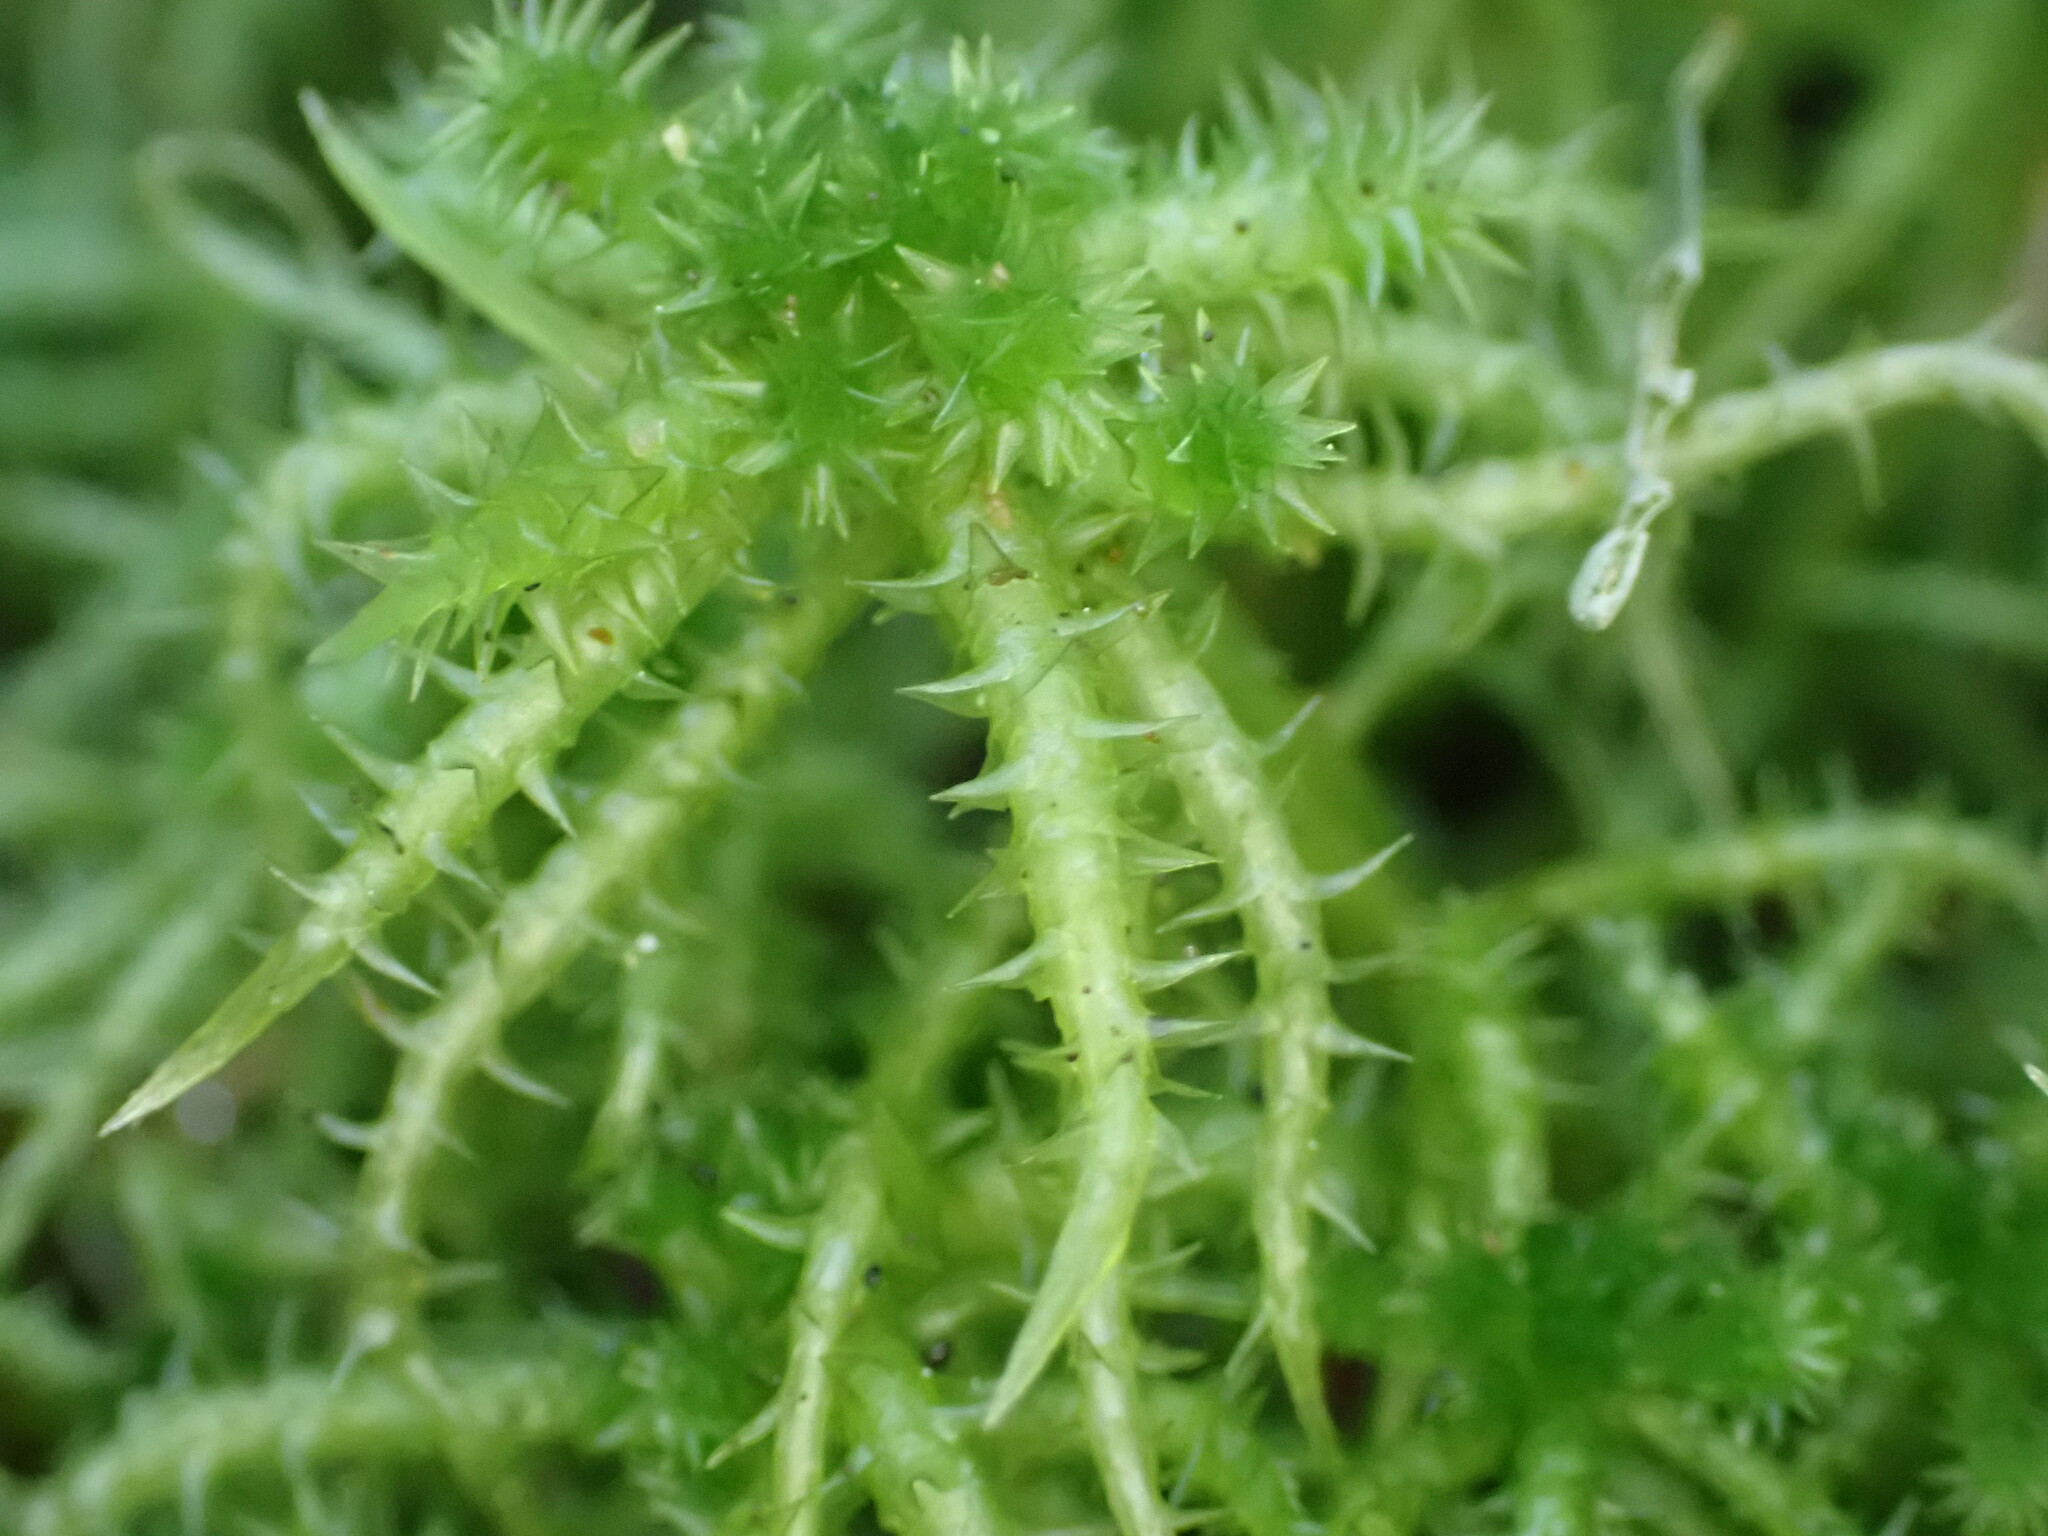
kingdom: Plantae
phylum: Bryophyta
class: Sphagnopsida
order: Sphagnales
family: Sphagnaceae
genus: Sphagnum
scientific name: Sphagnum squarrosum
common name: Shaggy peat moss
